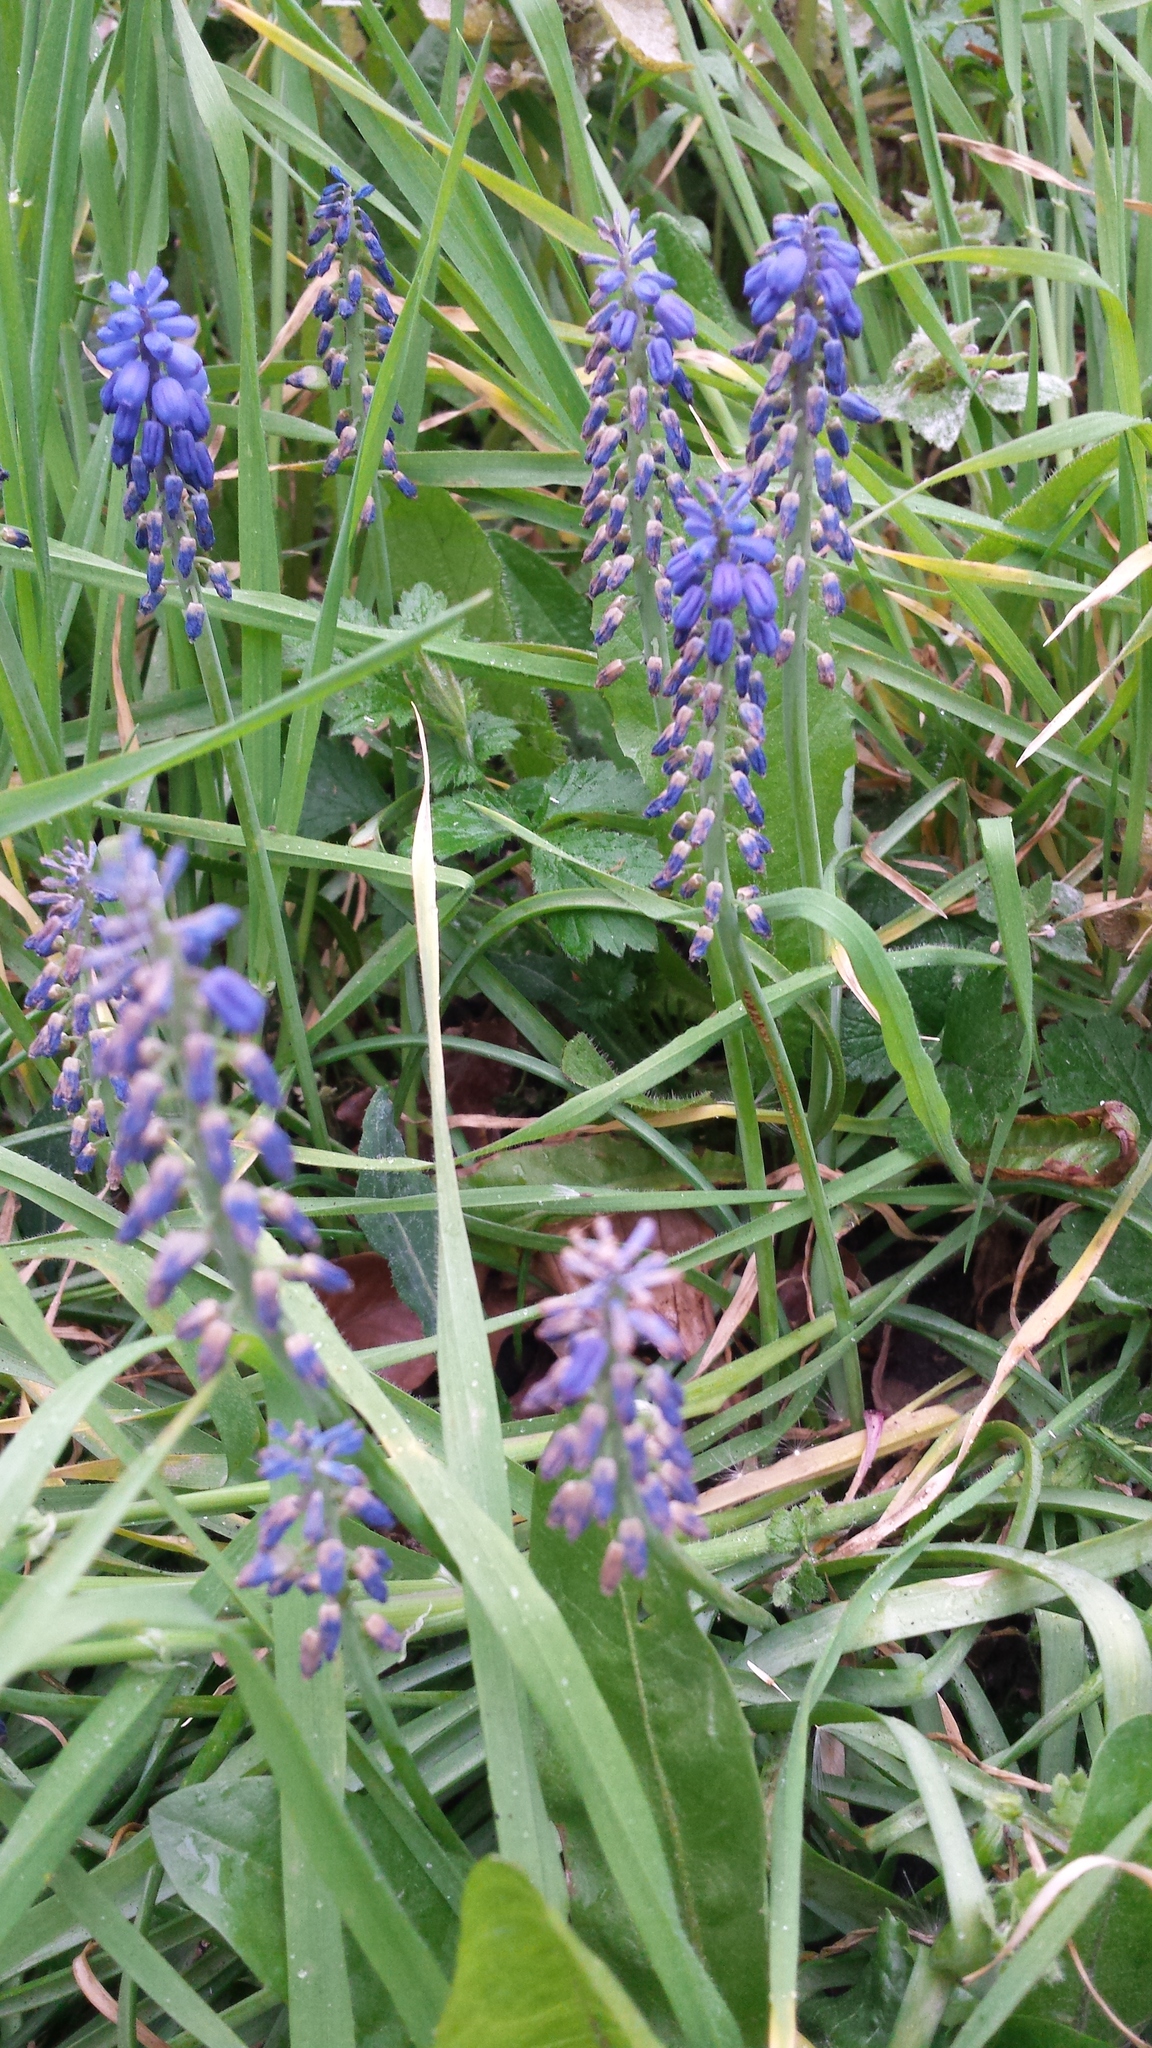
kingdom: Plantae
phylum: Tracheophyta
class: Liliopsida
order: Asparagales
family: Asparagaceae
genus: Muscari
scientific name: Muscari armeniacum
